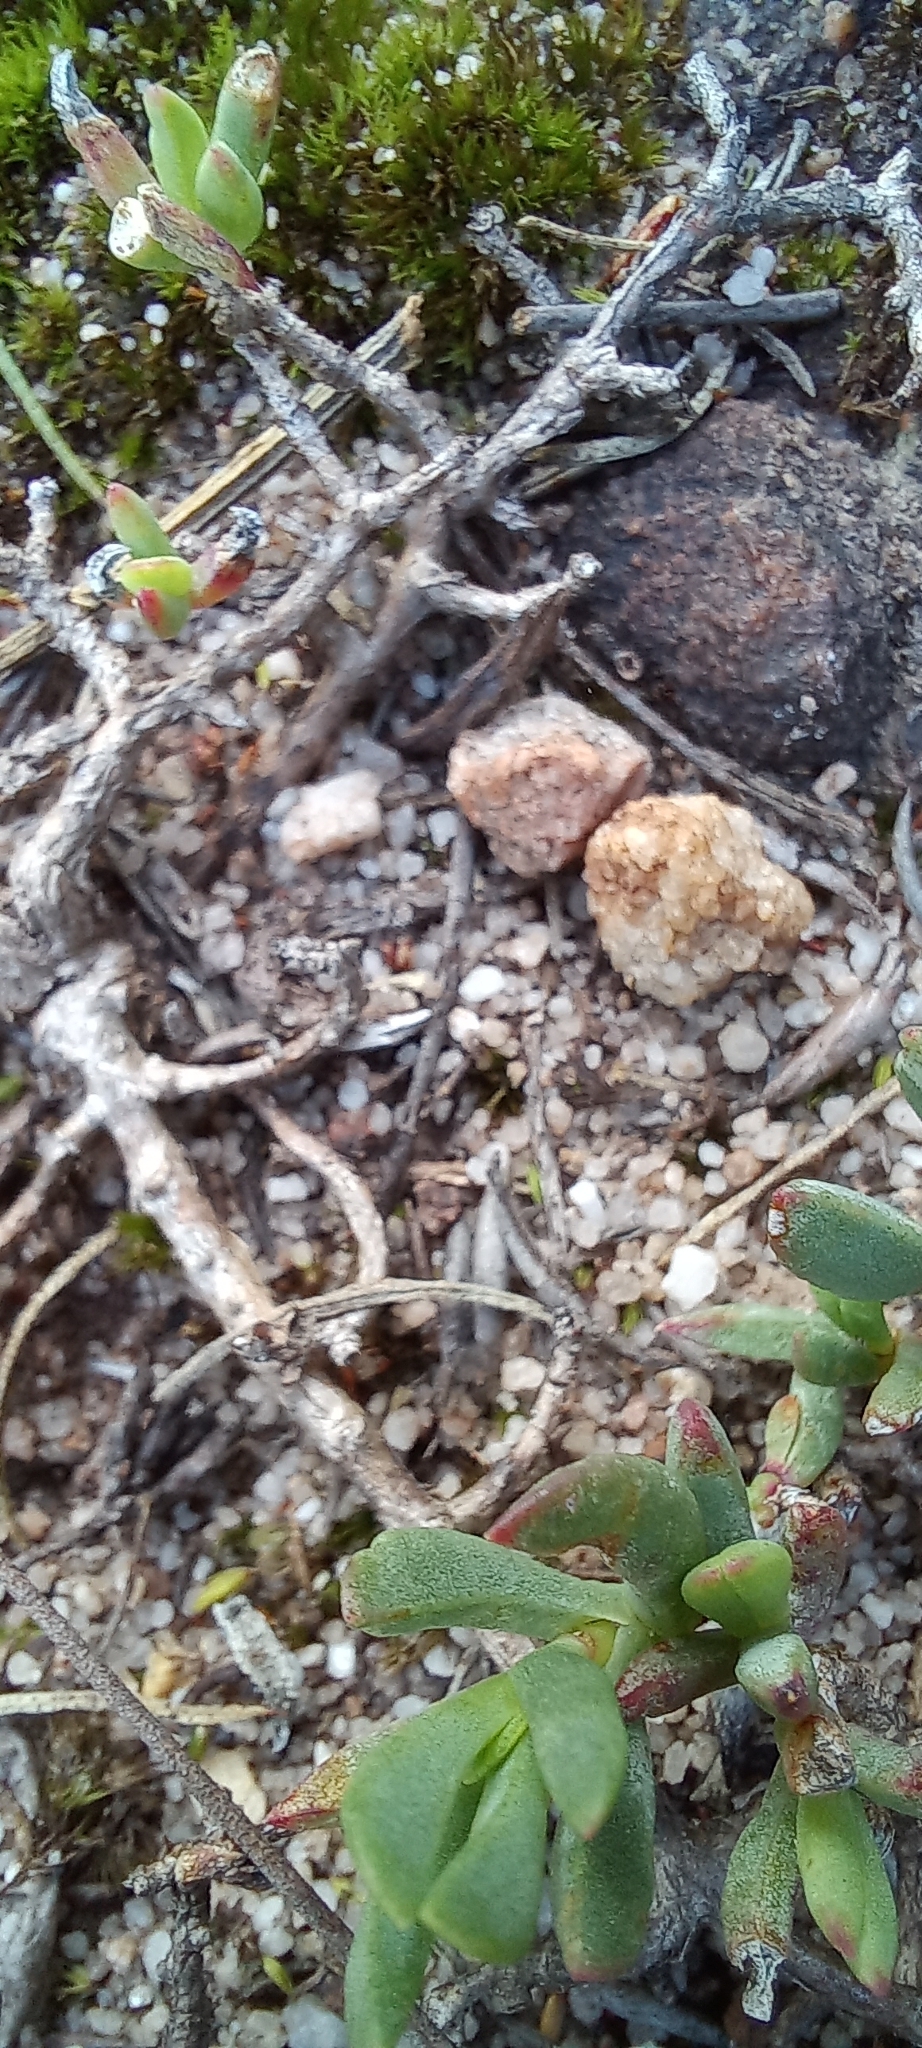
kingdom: Plantae
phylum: Tracheophyta
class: Magnoliopsida
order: Caryophyllales
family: Aizoaceae
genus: Lampranthus
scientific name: Lampranthus glomeratus
